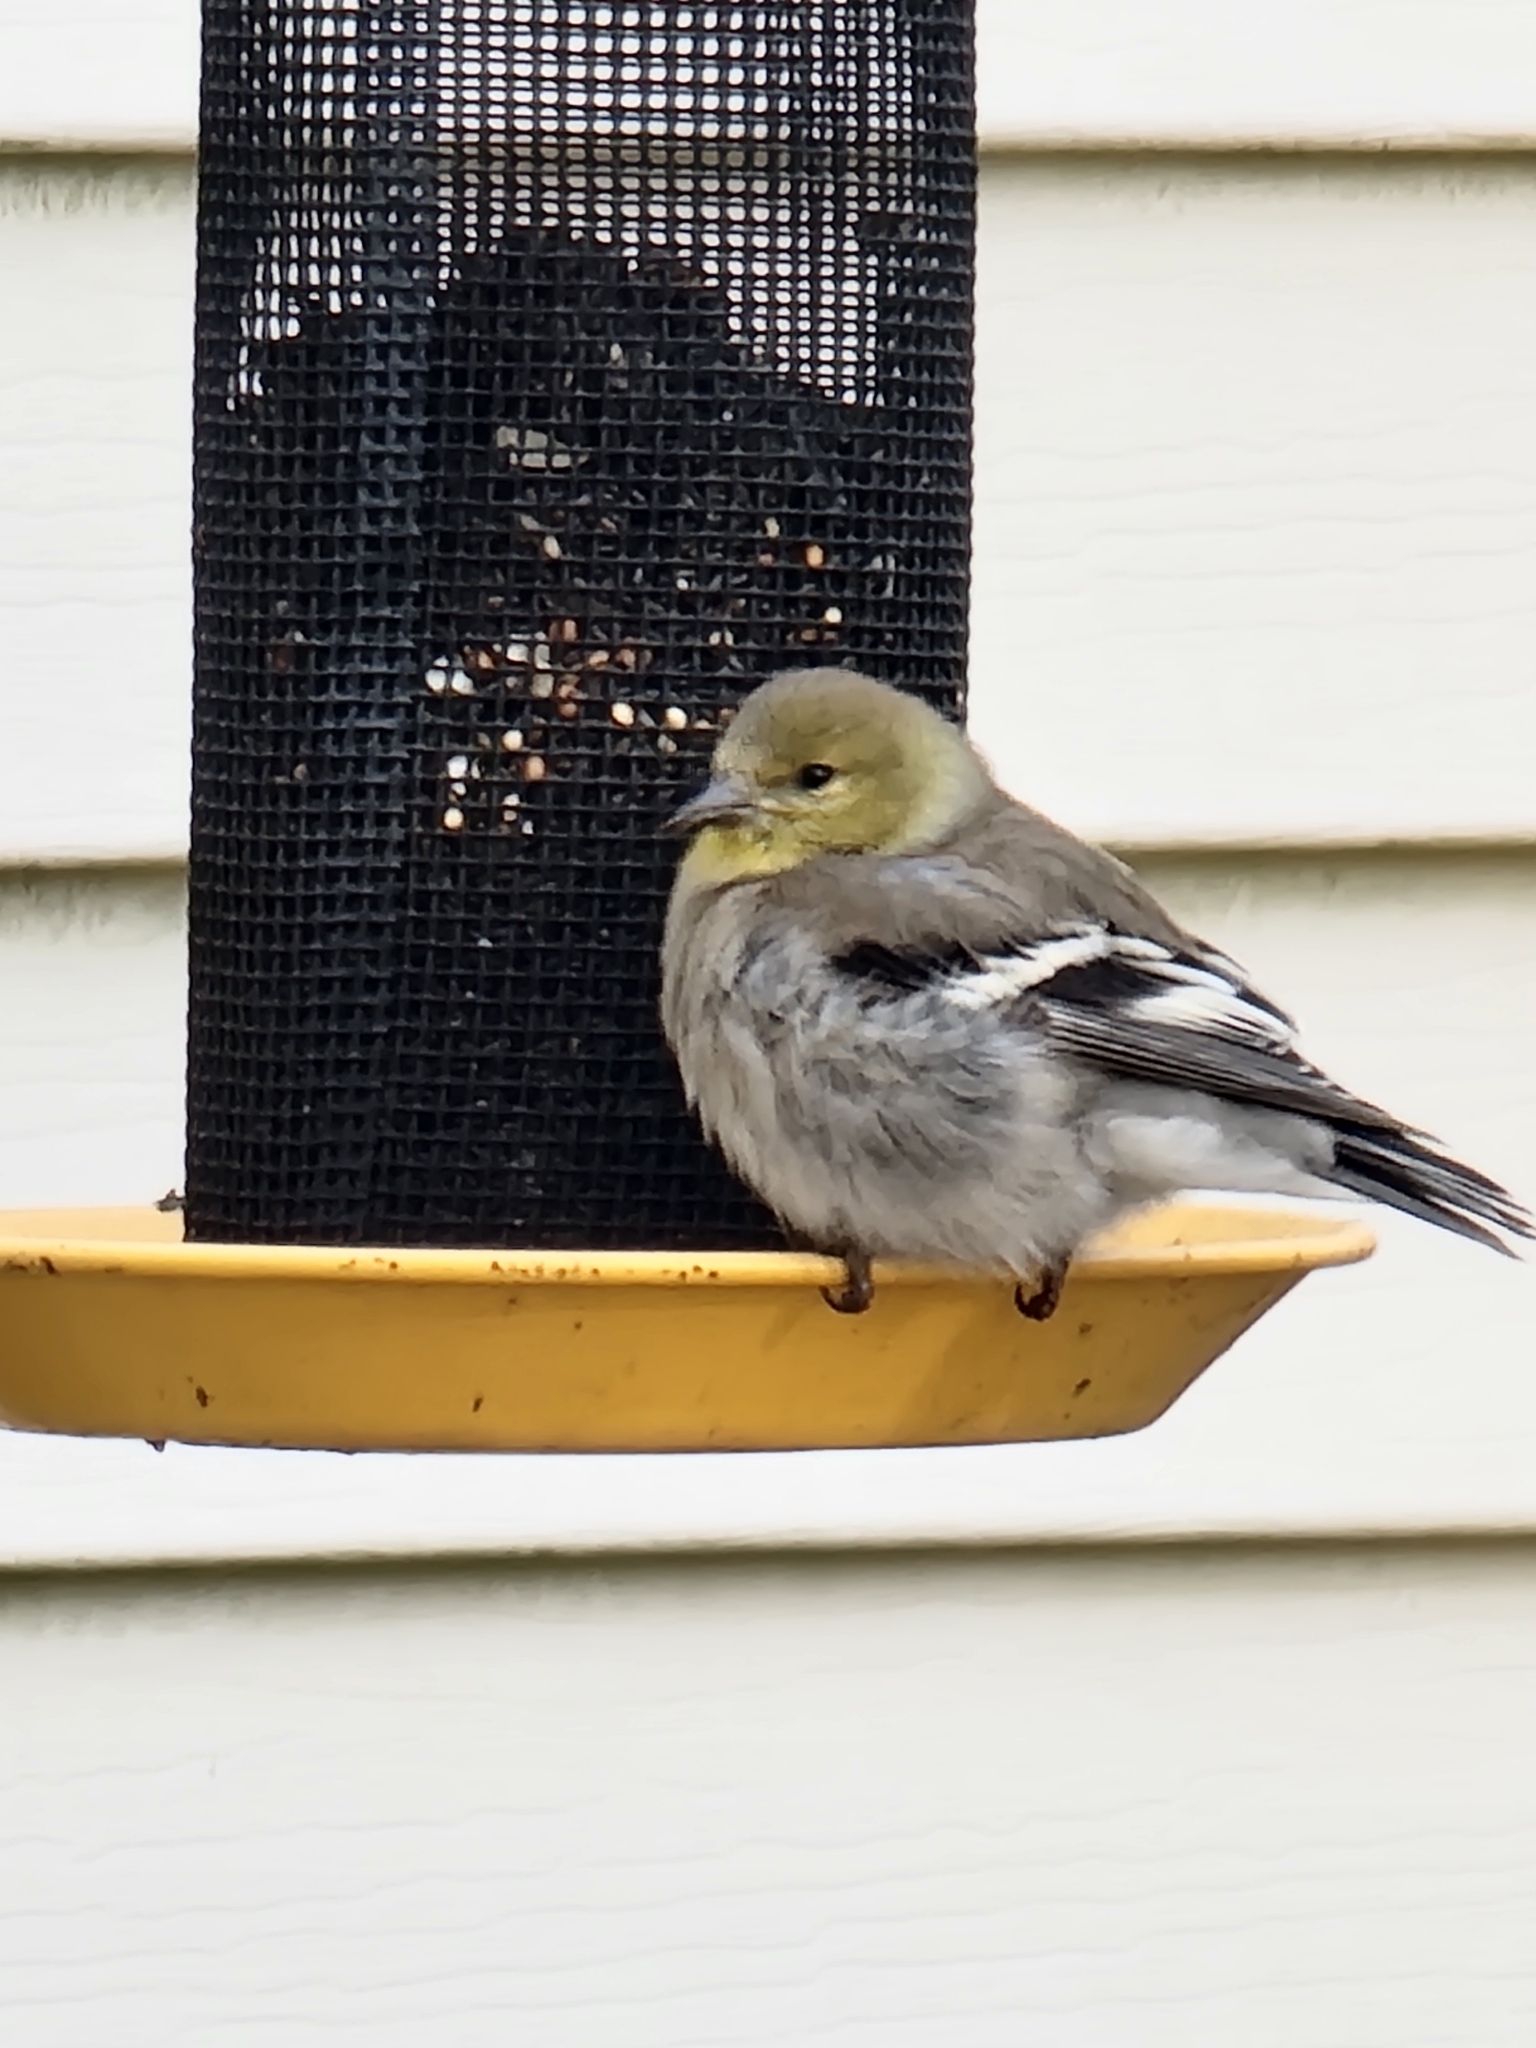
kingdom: Animalia
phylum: Chordata
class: Aves
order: Passeriformes
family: Fringillidae
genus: Spinus
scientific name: Spinus tristis
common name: American goldfinch
